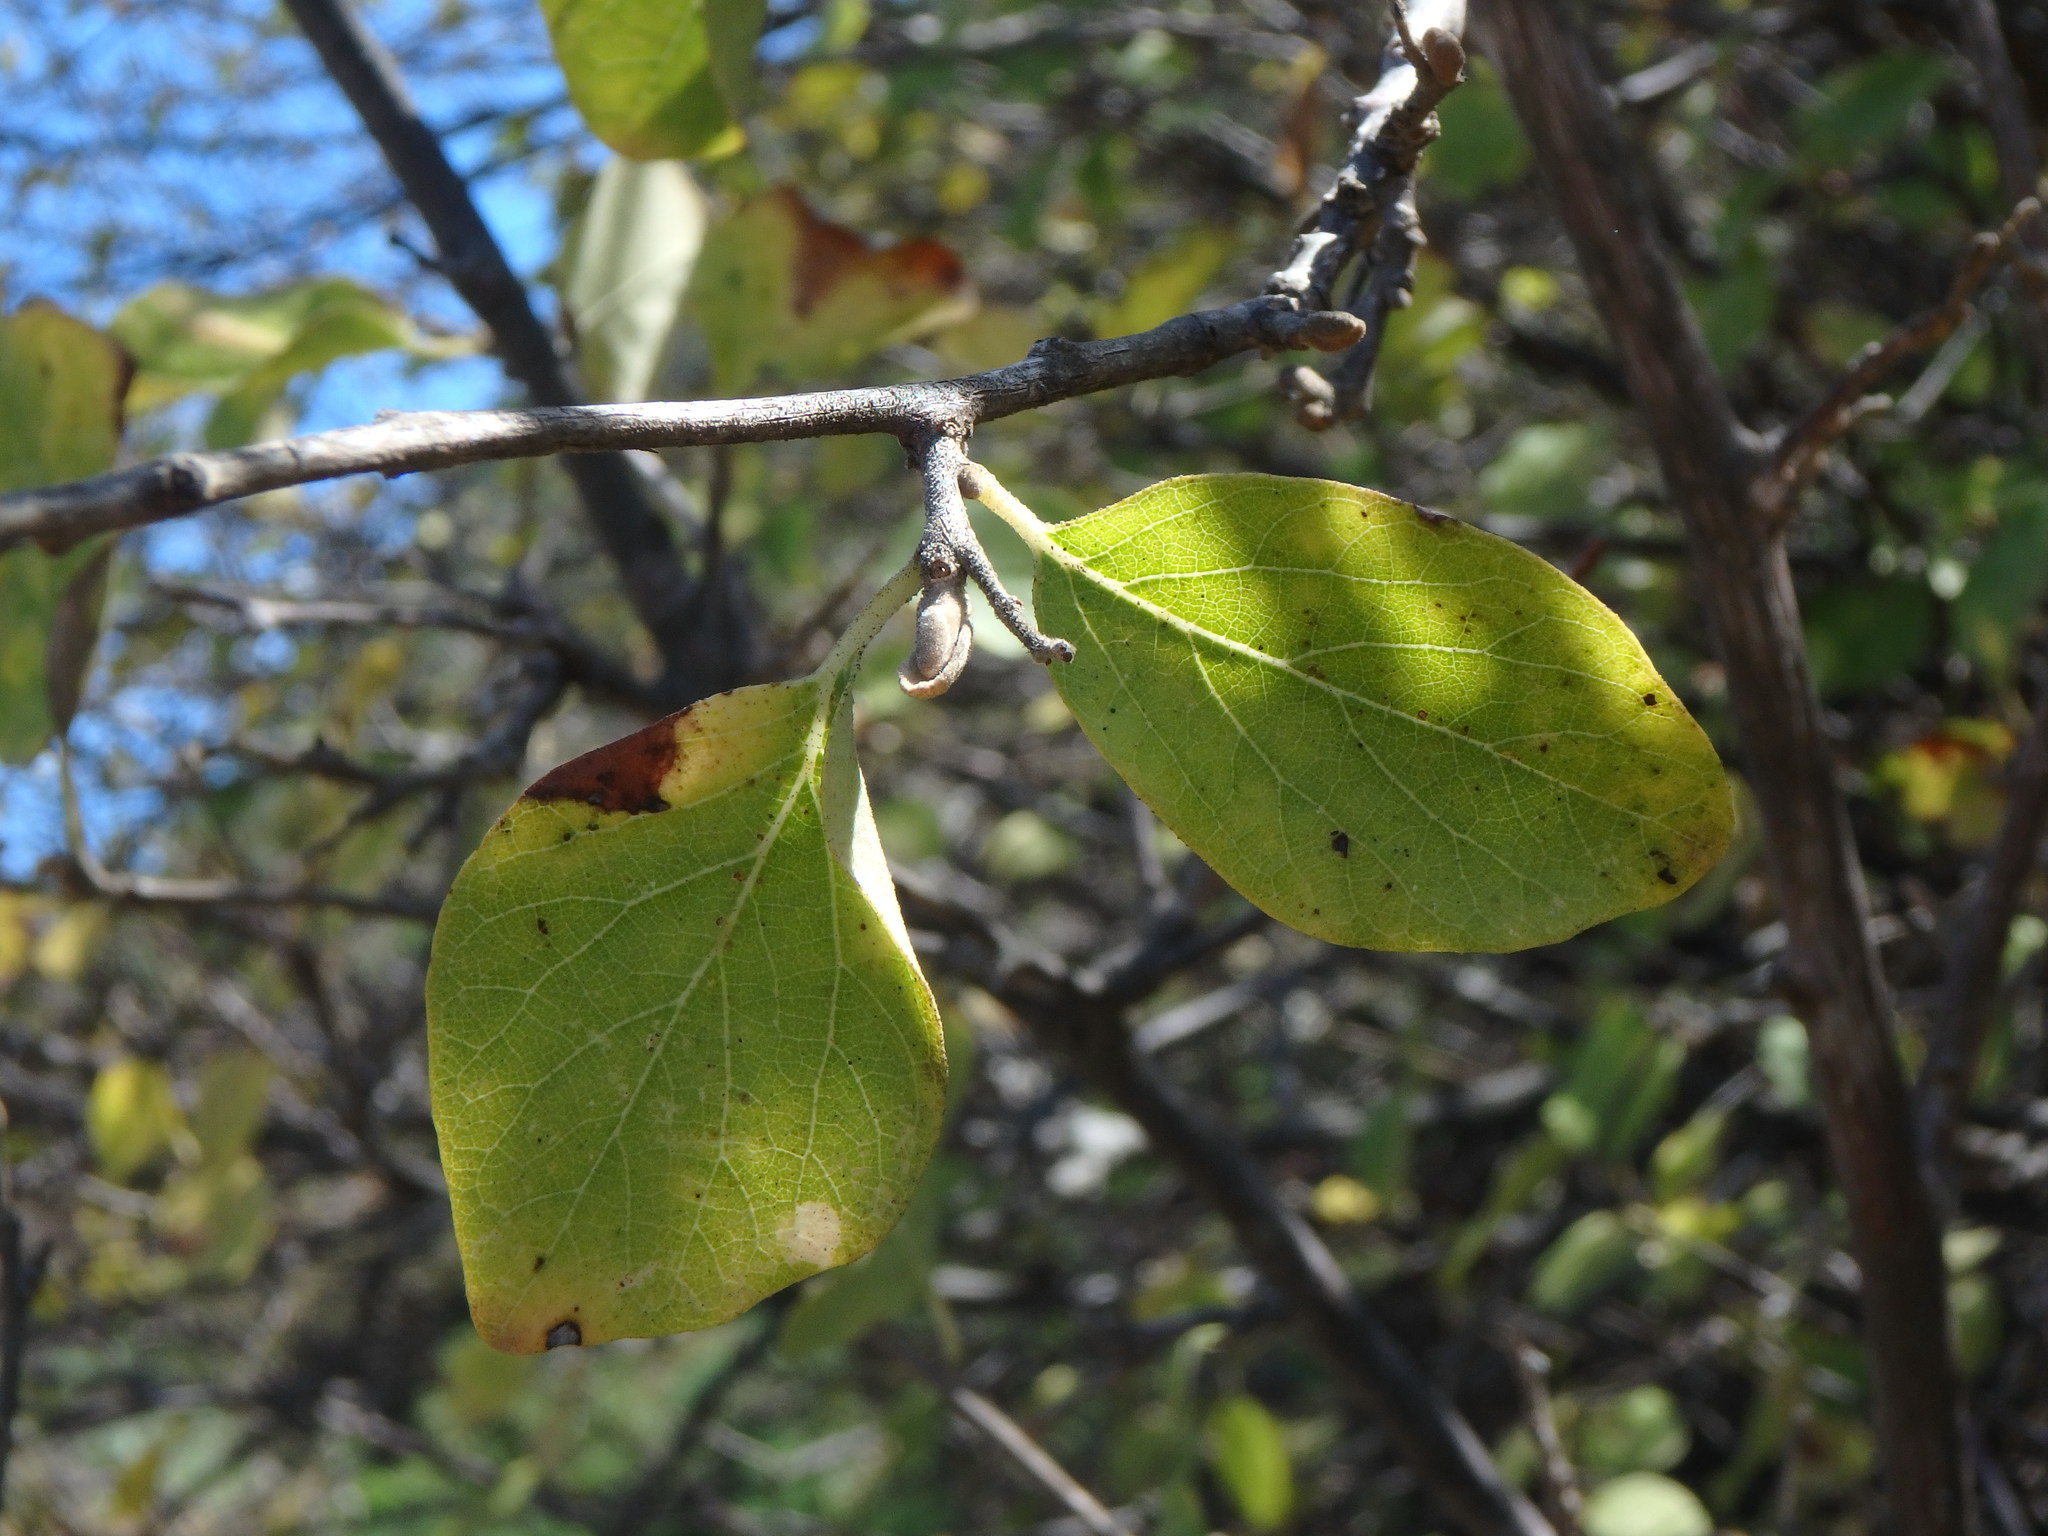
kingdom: Plantae
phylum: Tracheophyta
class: Magnoliopsida
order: Ericales
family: Styracaceae
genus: Styrax
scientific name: Styrax officinalis
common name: Storax
